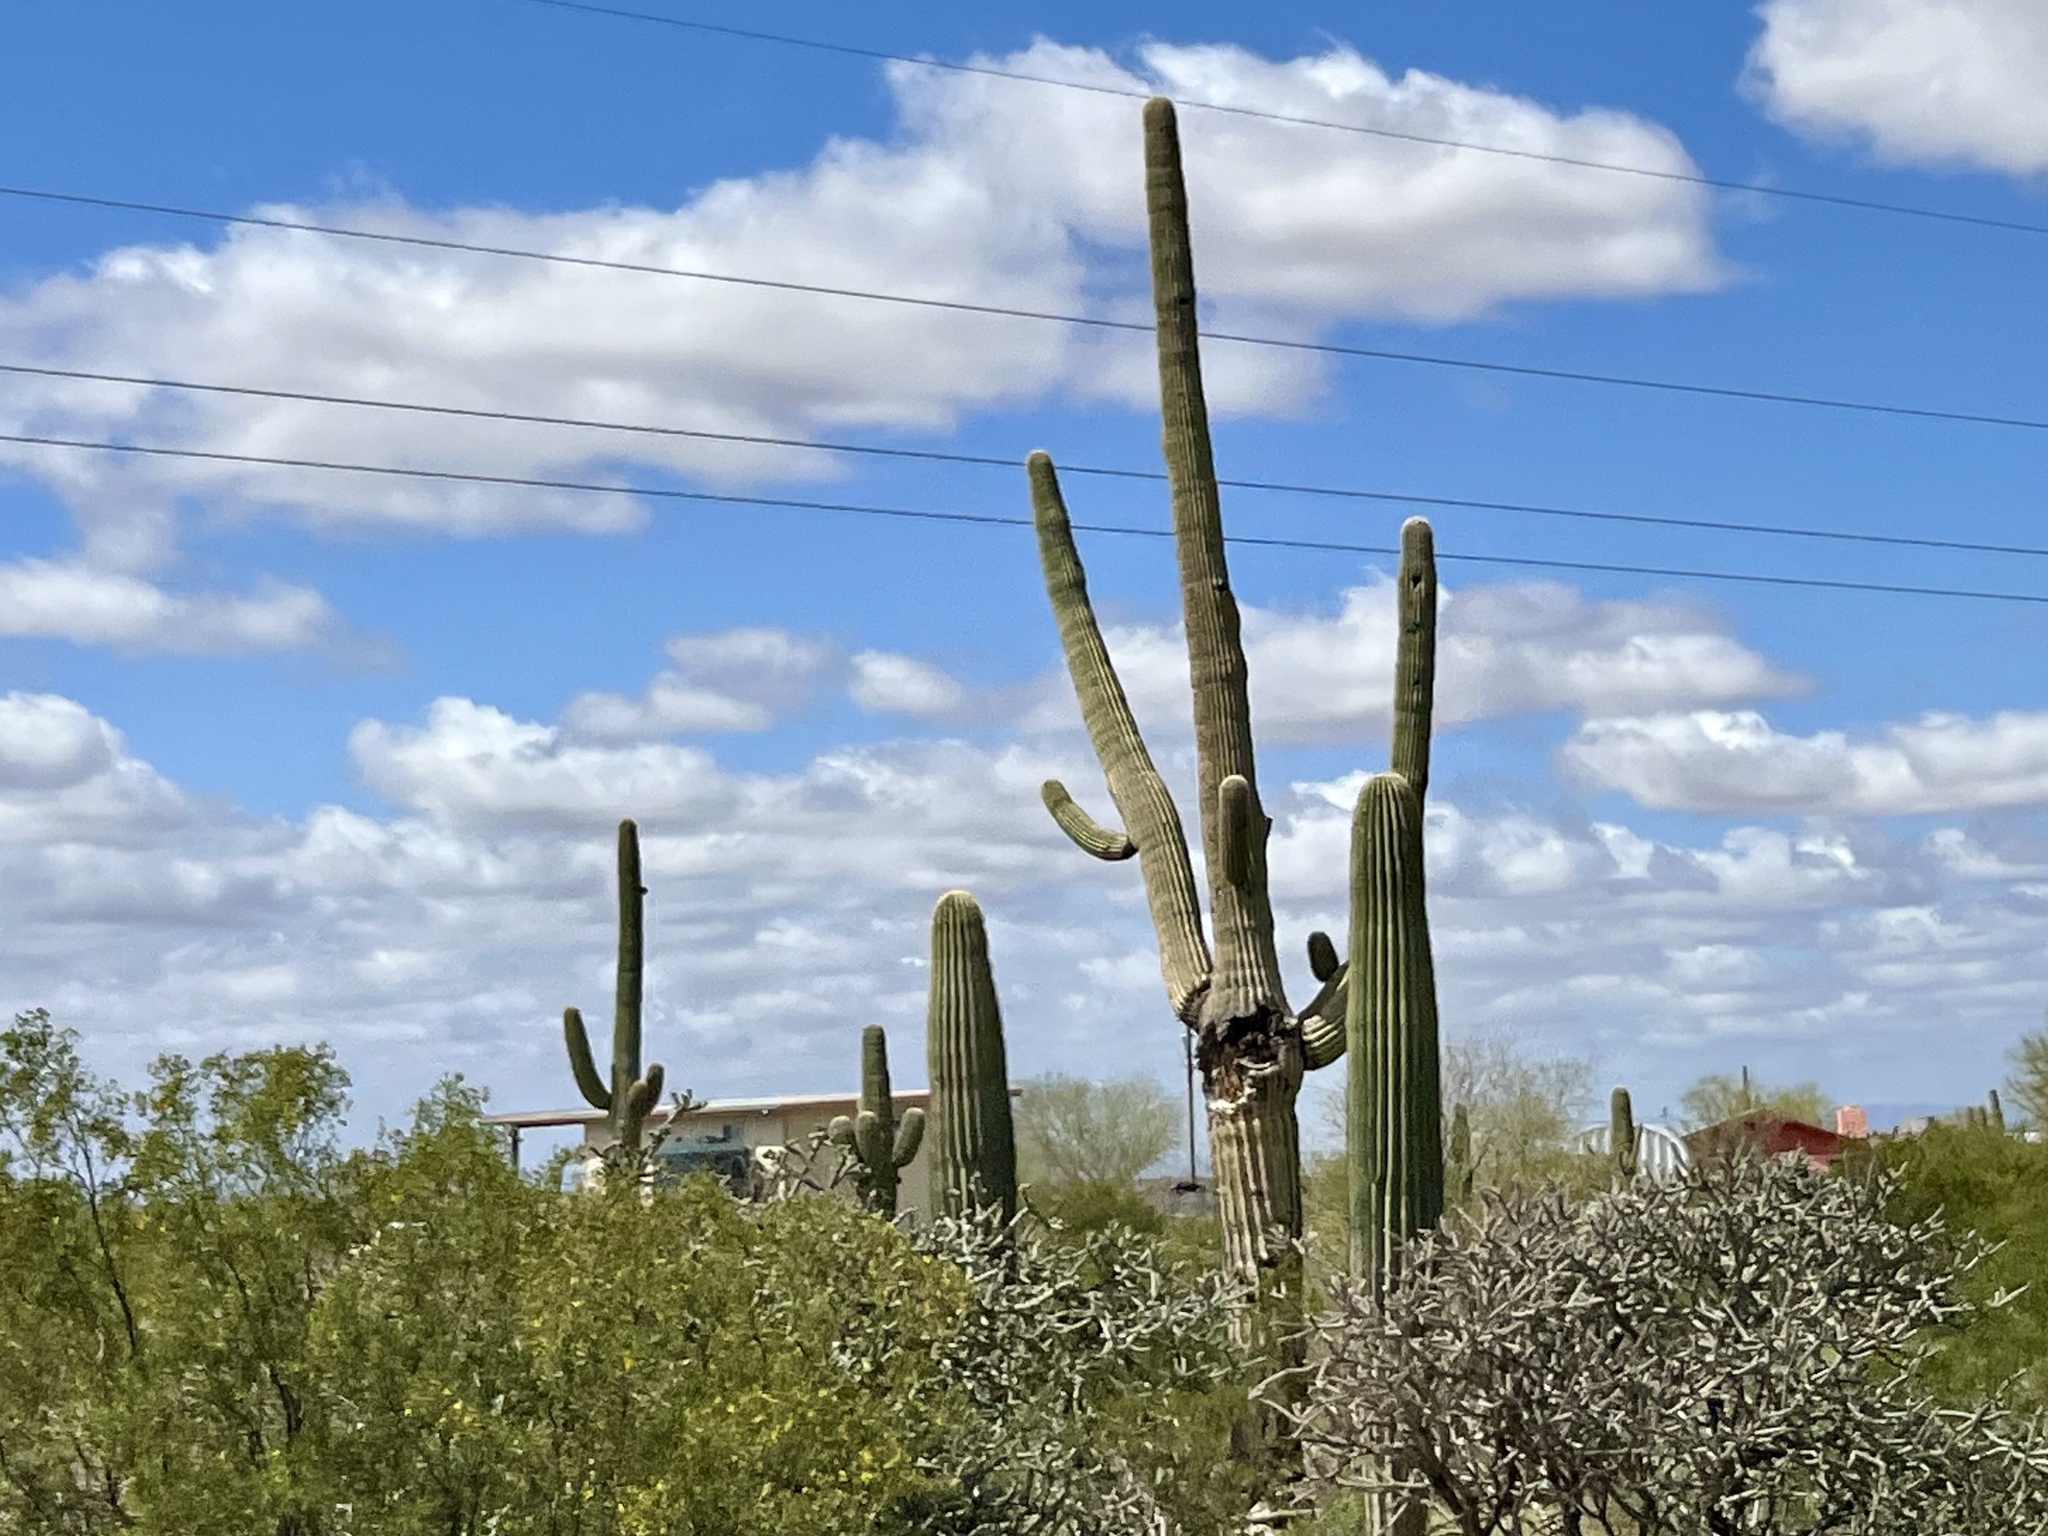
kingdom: Plantae
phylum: Tracheophyta
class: Magnoliopsida
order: Caryophyllales
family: Cactaceae
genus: Carnegiea
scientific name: Carnegiea gigantea
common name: Saguaro
